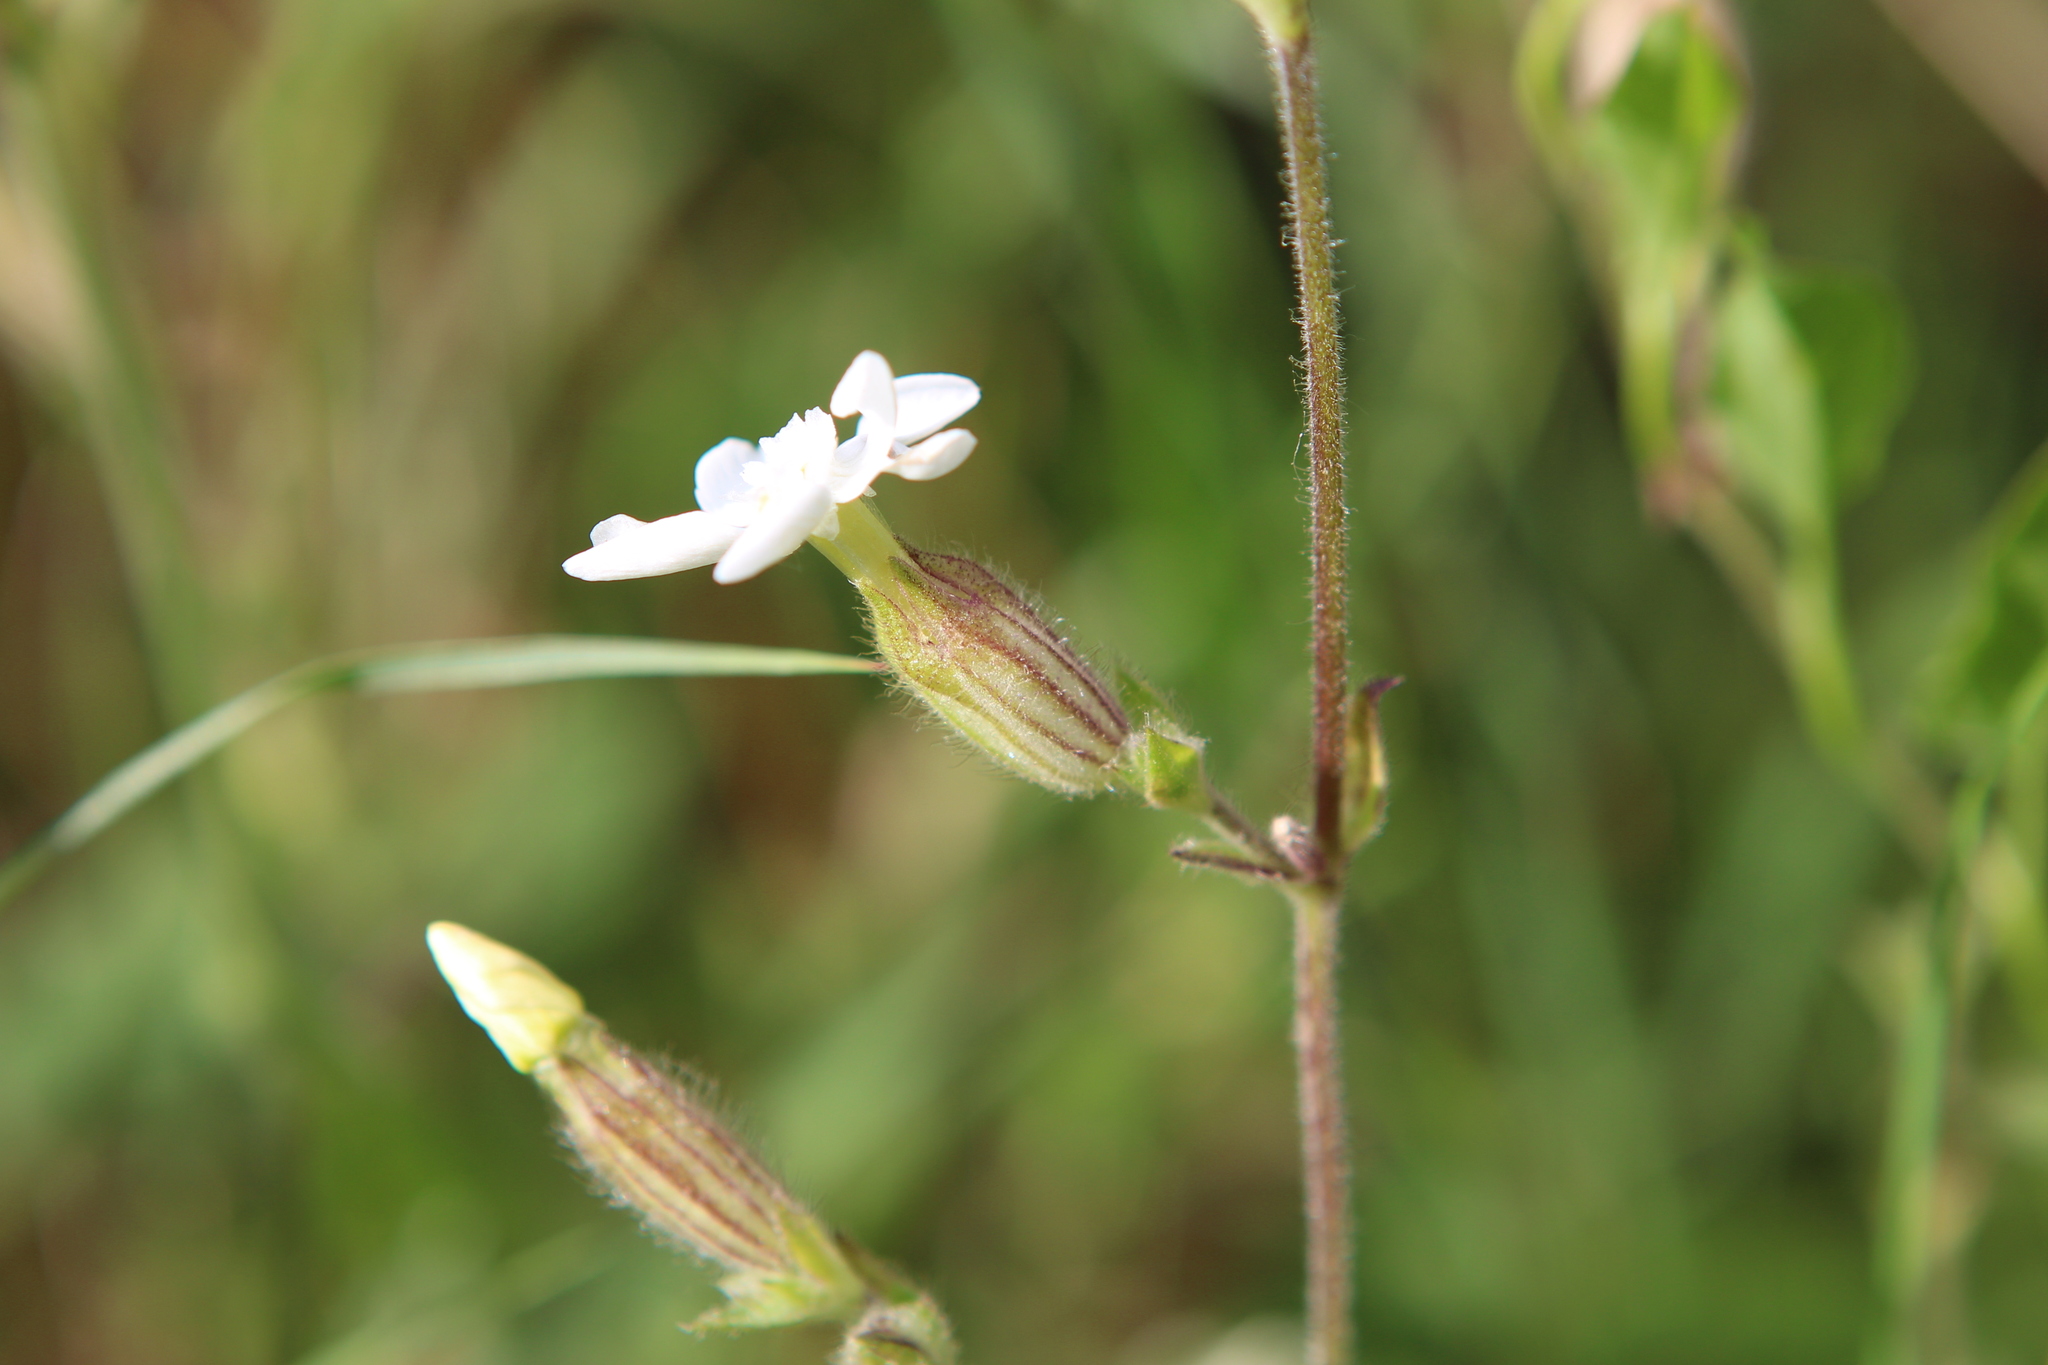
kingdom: Plantae
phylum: Tracheophyta
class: Magnoliopsida
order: Caryophyllales
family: Caryophyllaceae
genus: Silene
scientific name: Silene latifolia
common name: White campion
